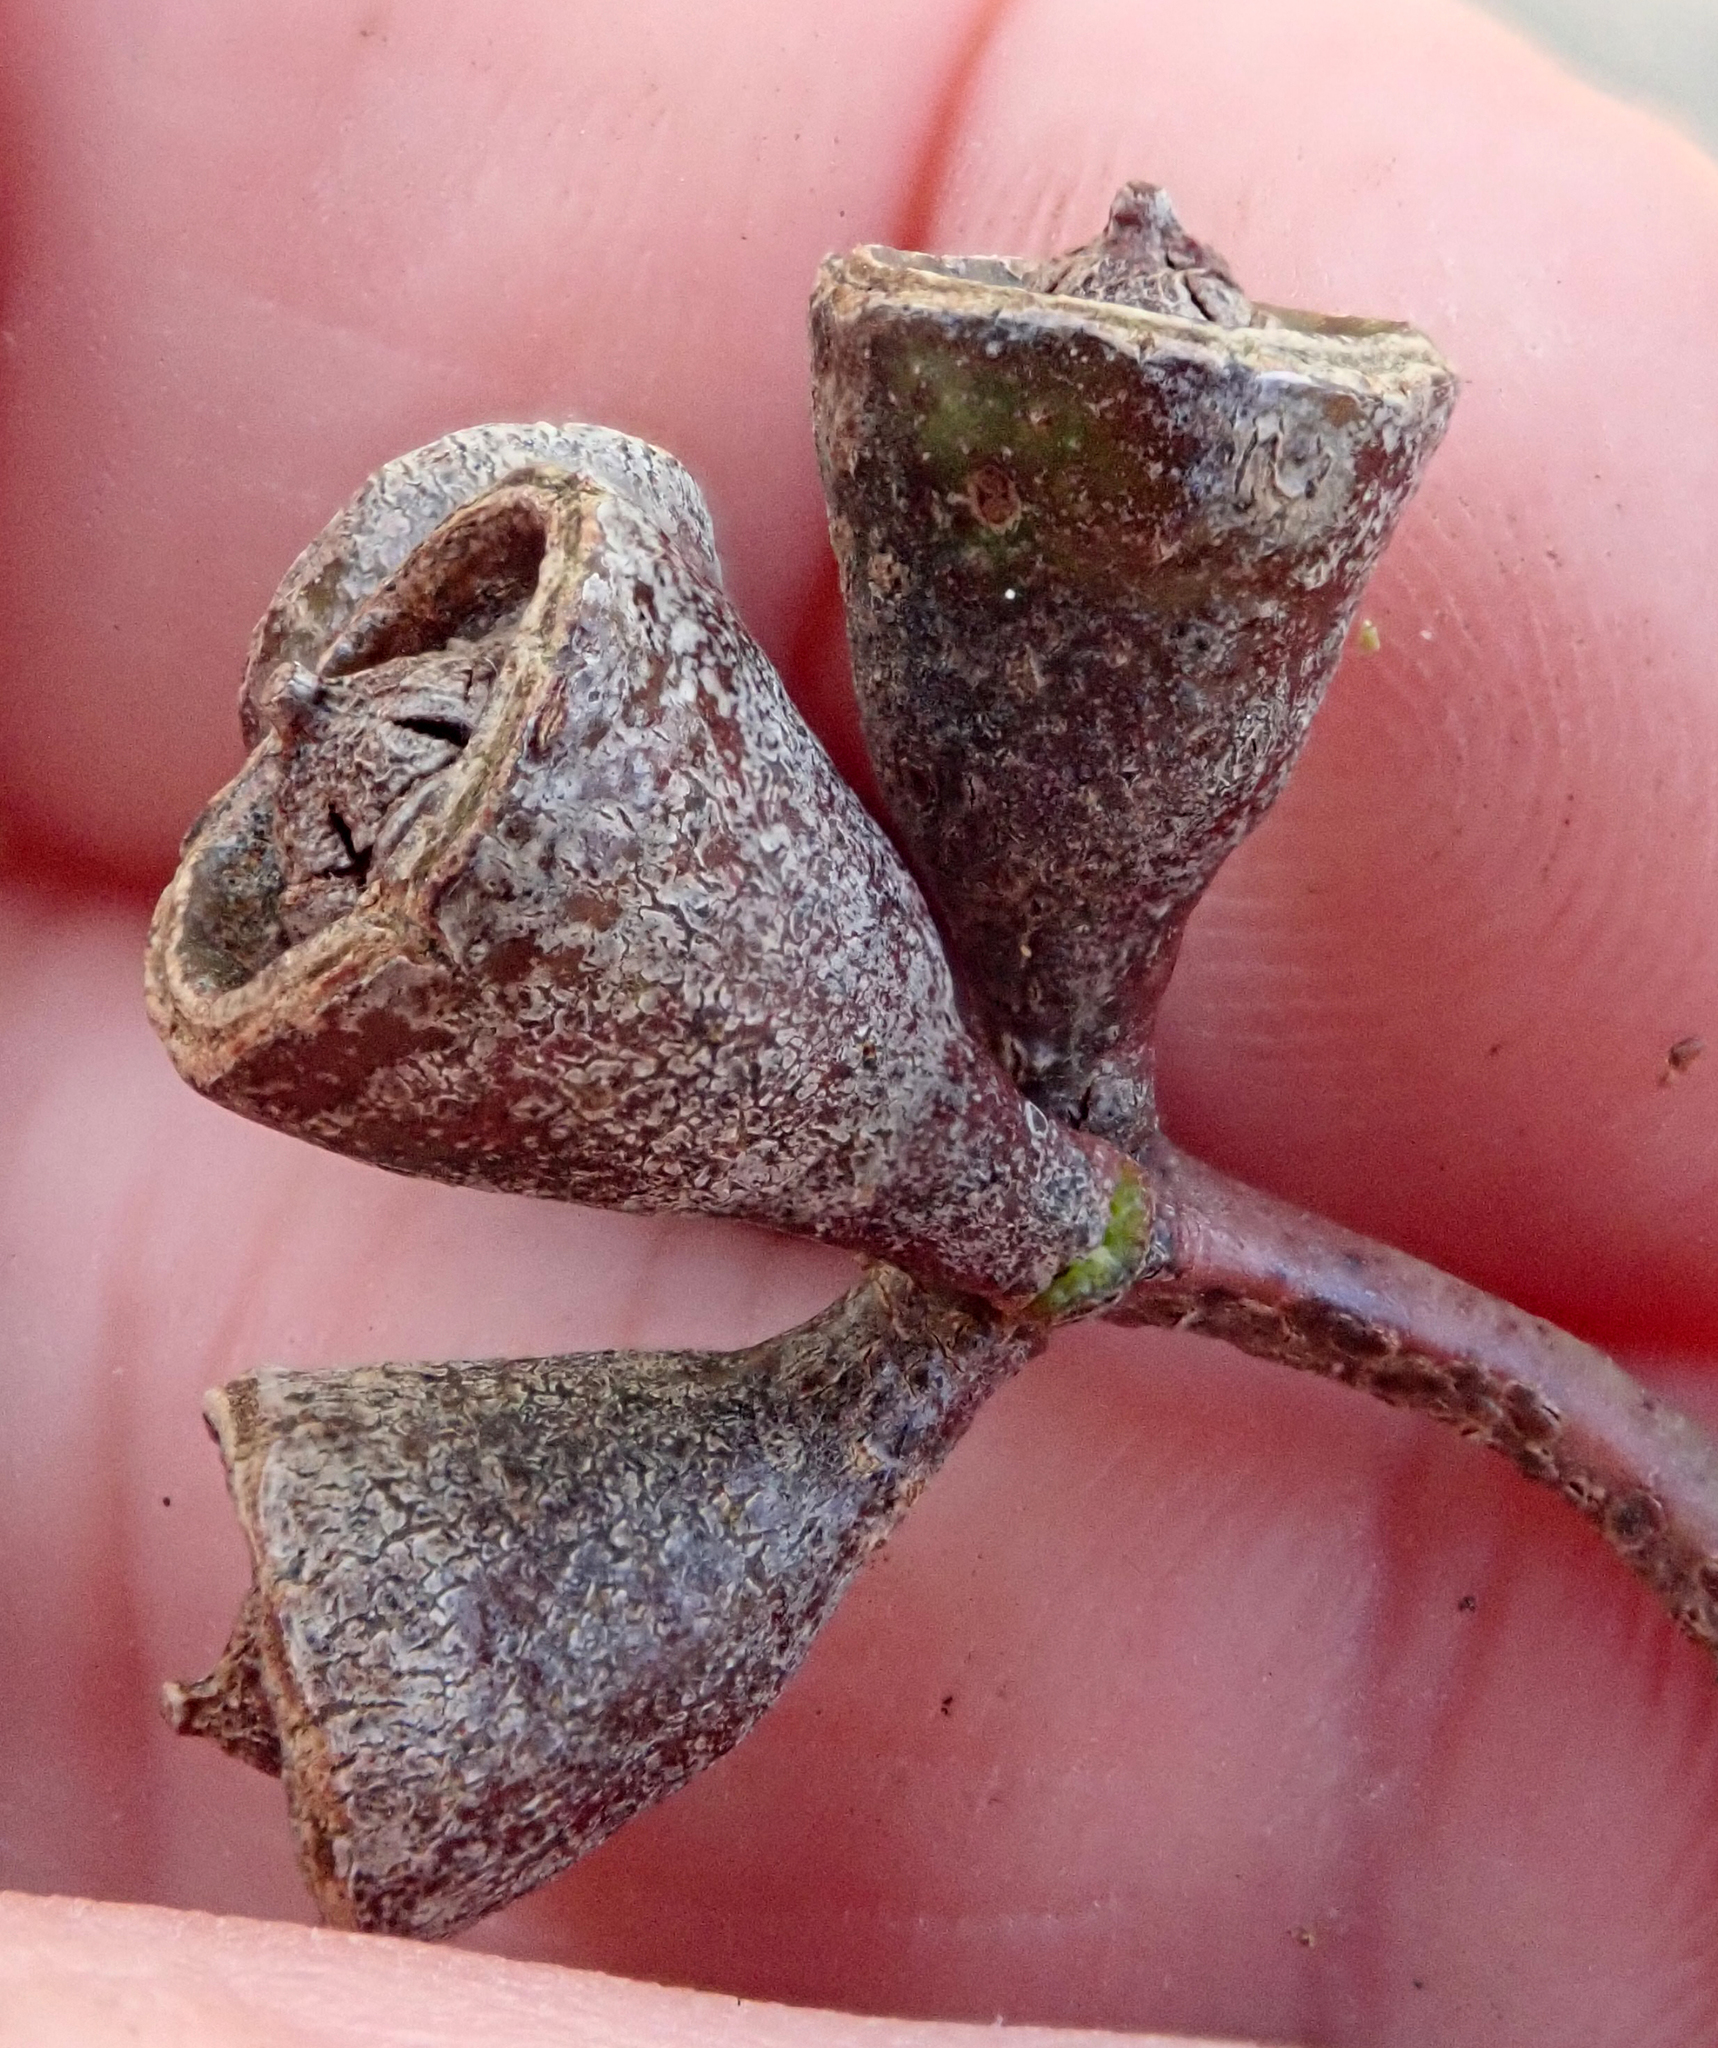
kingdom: Plantae
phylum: Tracheophyta
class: Magnoliopsida
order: Myrtales
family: Myrtaceae
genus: Eucalyptus
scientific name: Eucalyptus saligna
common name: Blue gum
